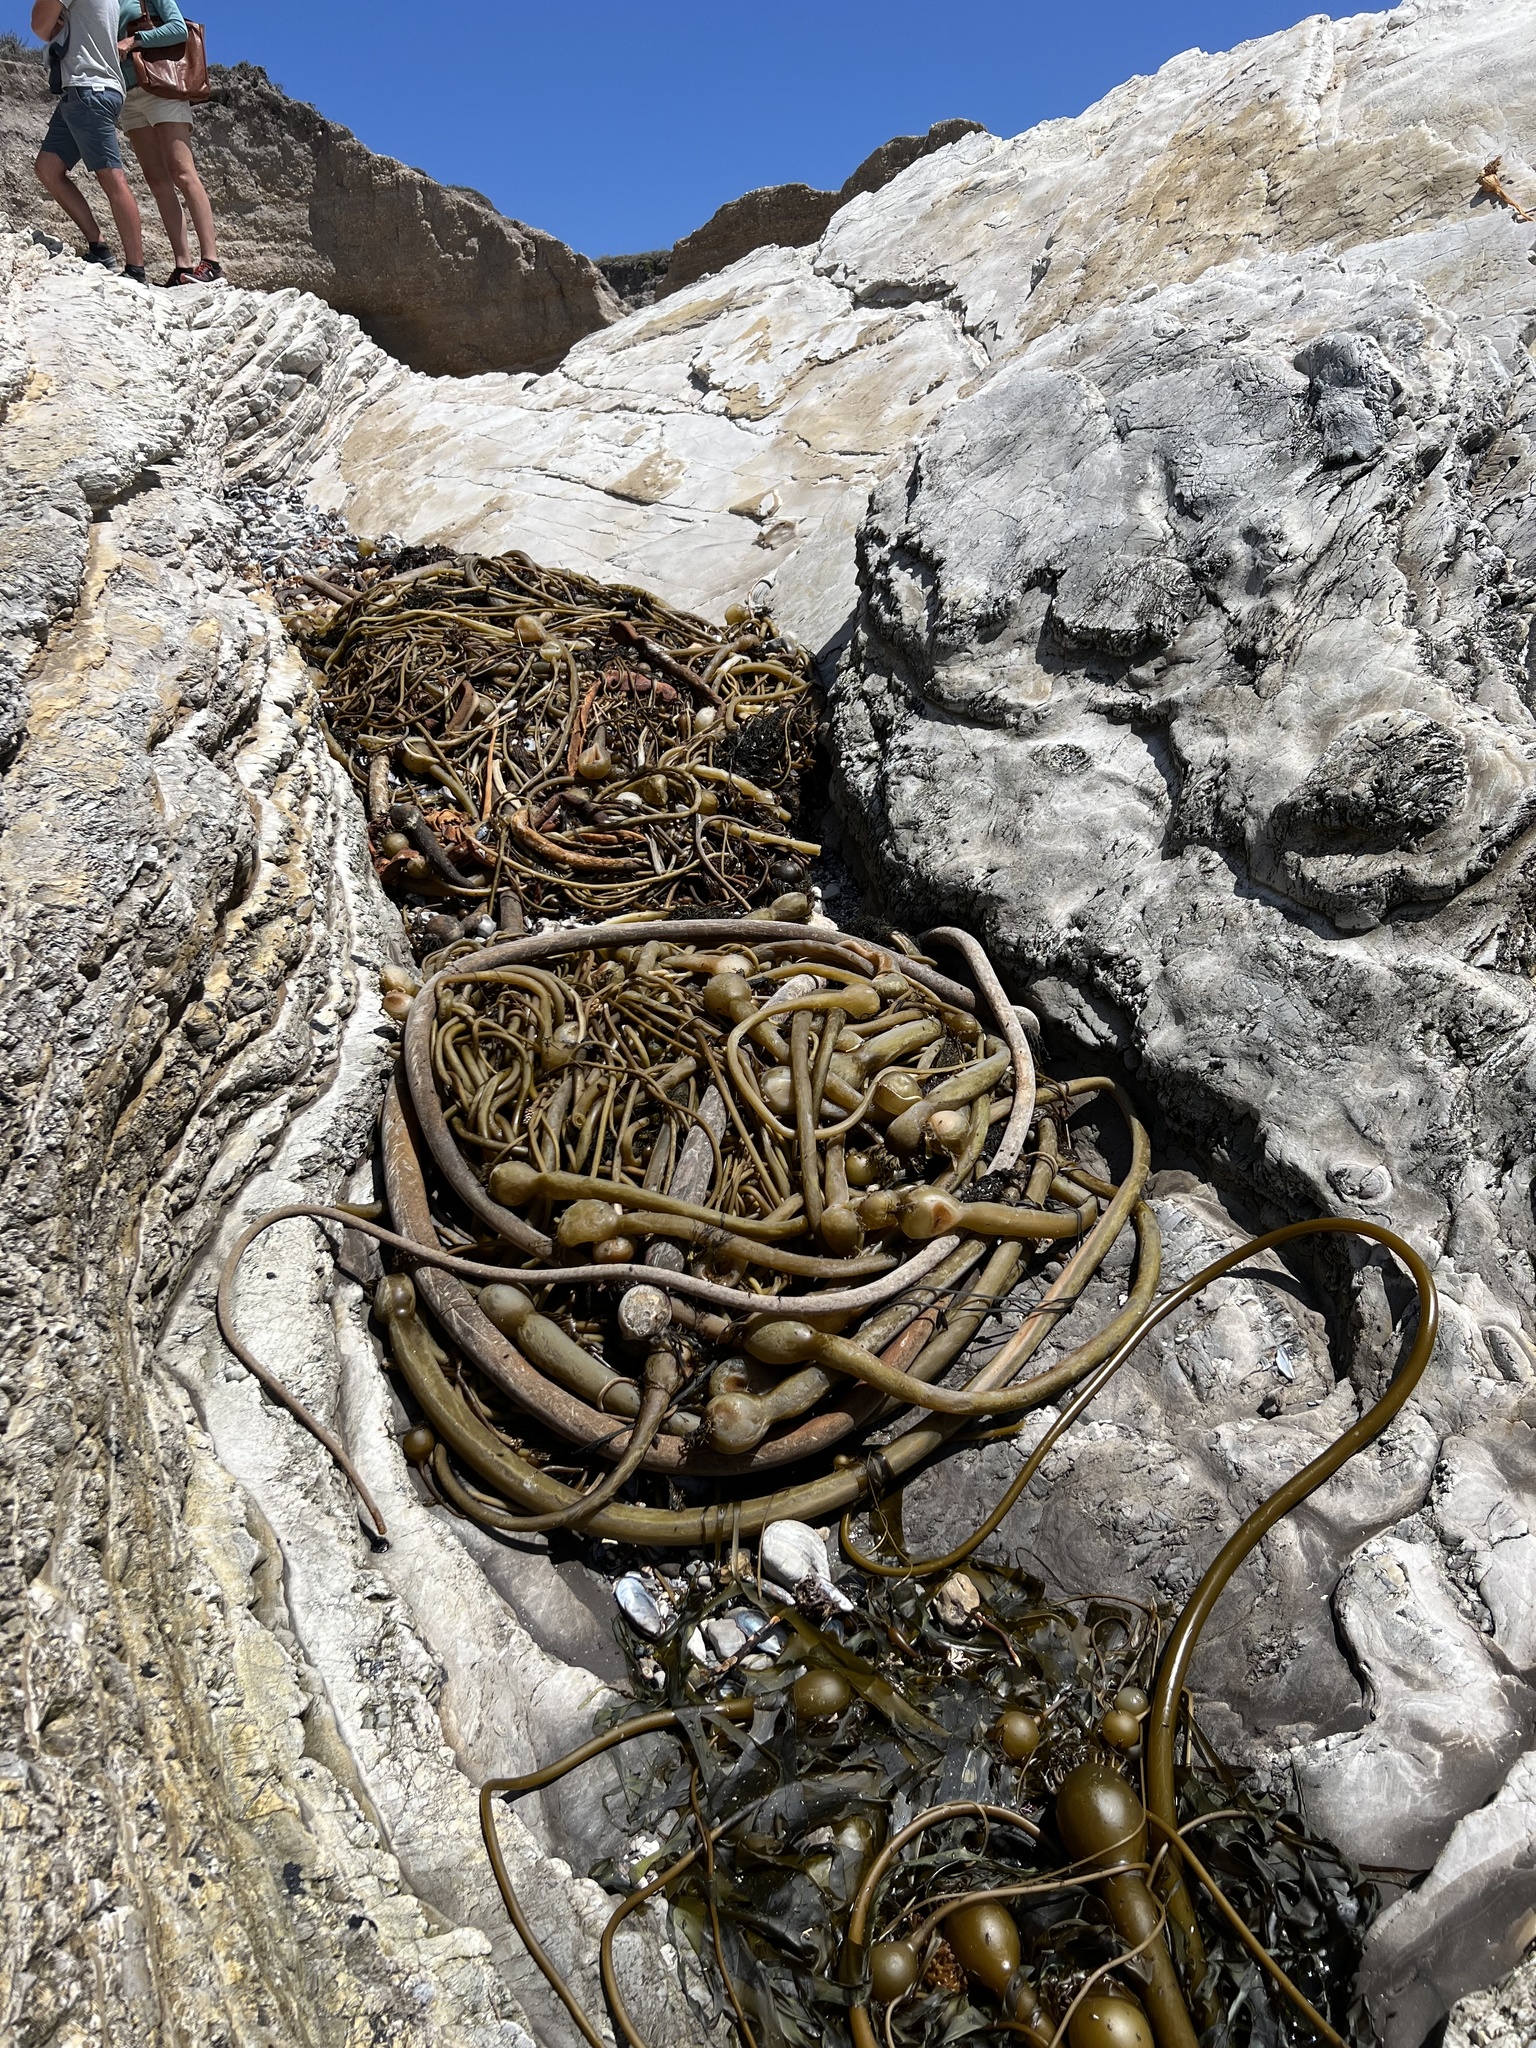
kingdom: Chromista
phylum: Ochrophyta
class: Phaeophyceae
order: Laminariales
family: Laminariaceae
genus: Nereocystis
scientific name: Nereocystis luetkeana
